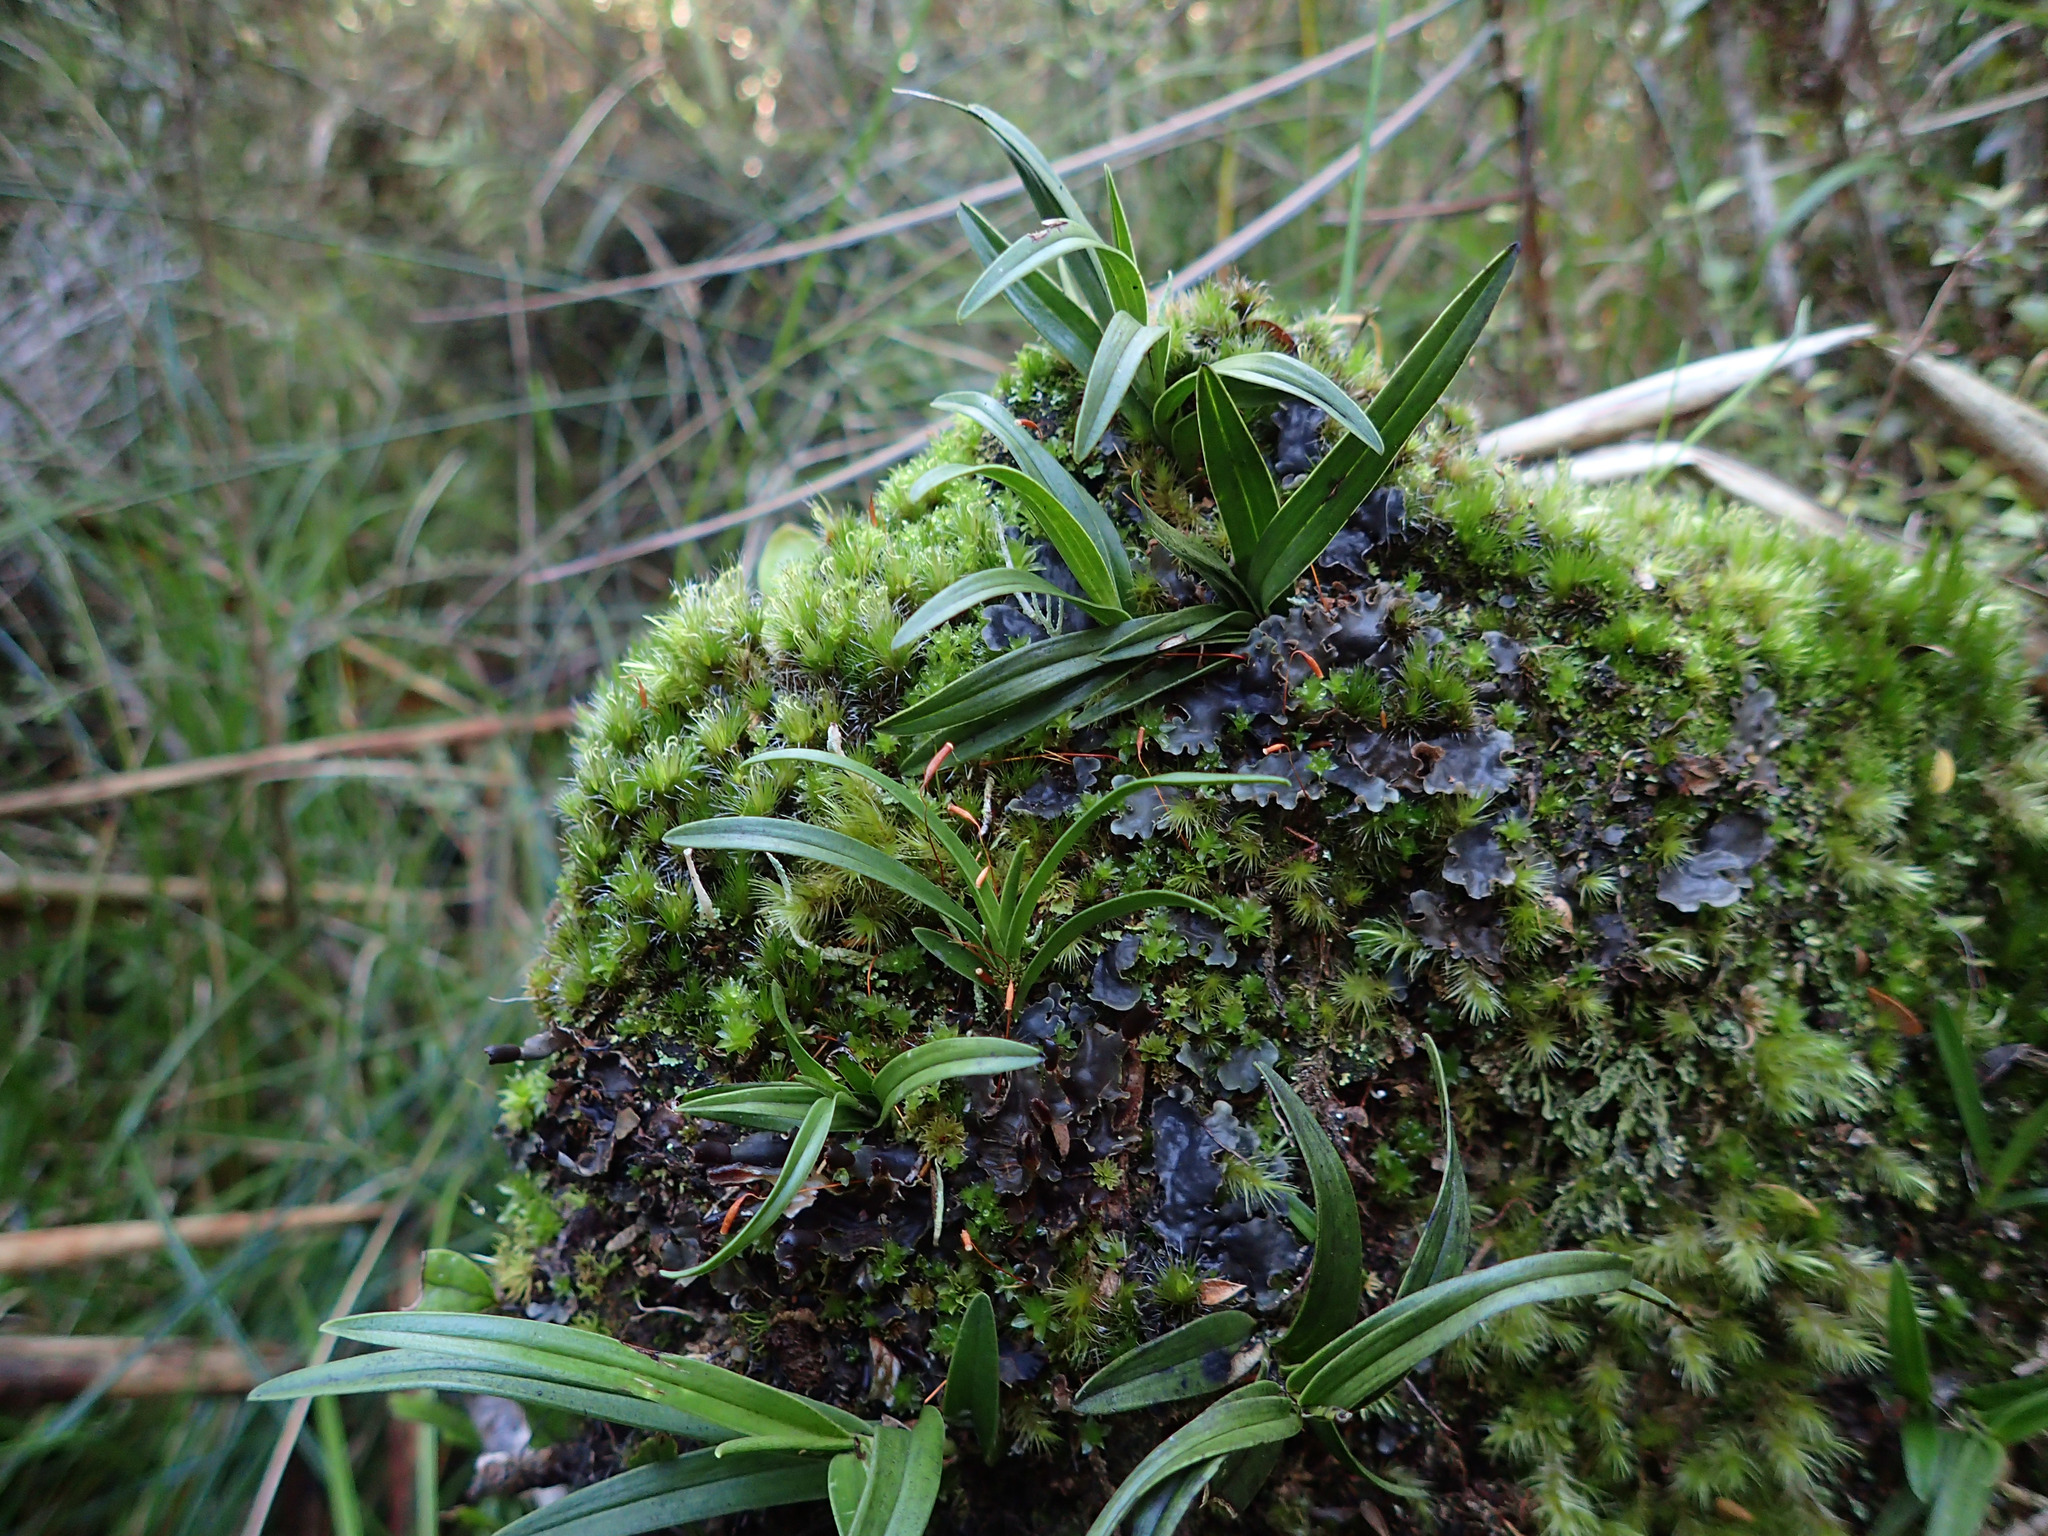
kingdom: Plantae
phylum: Tracheophyta
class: Liliopsida
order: Asparagales
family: Orchidaceae
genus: Earina
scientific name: Earina autumnalis
